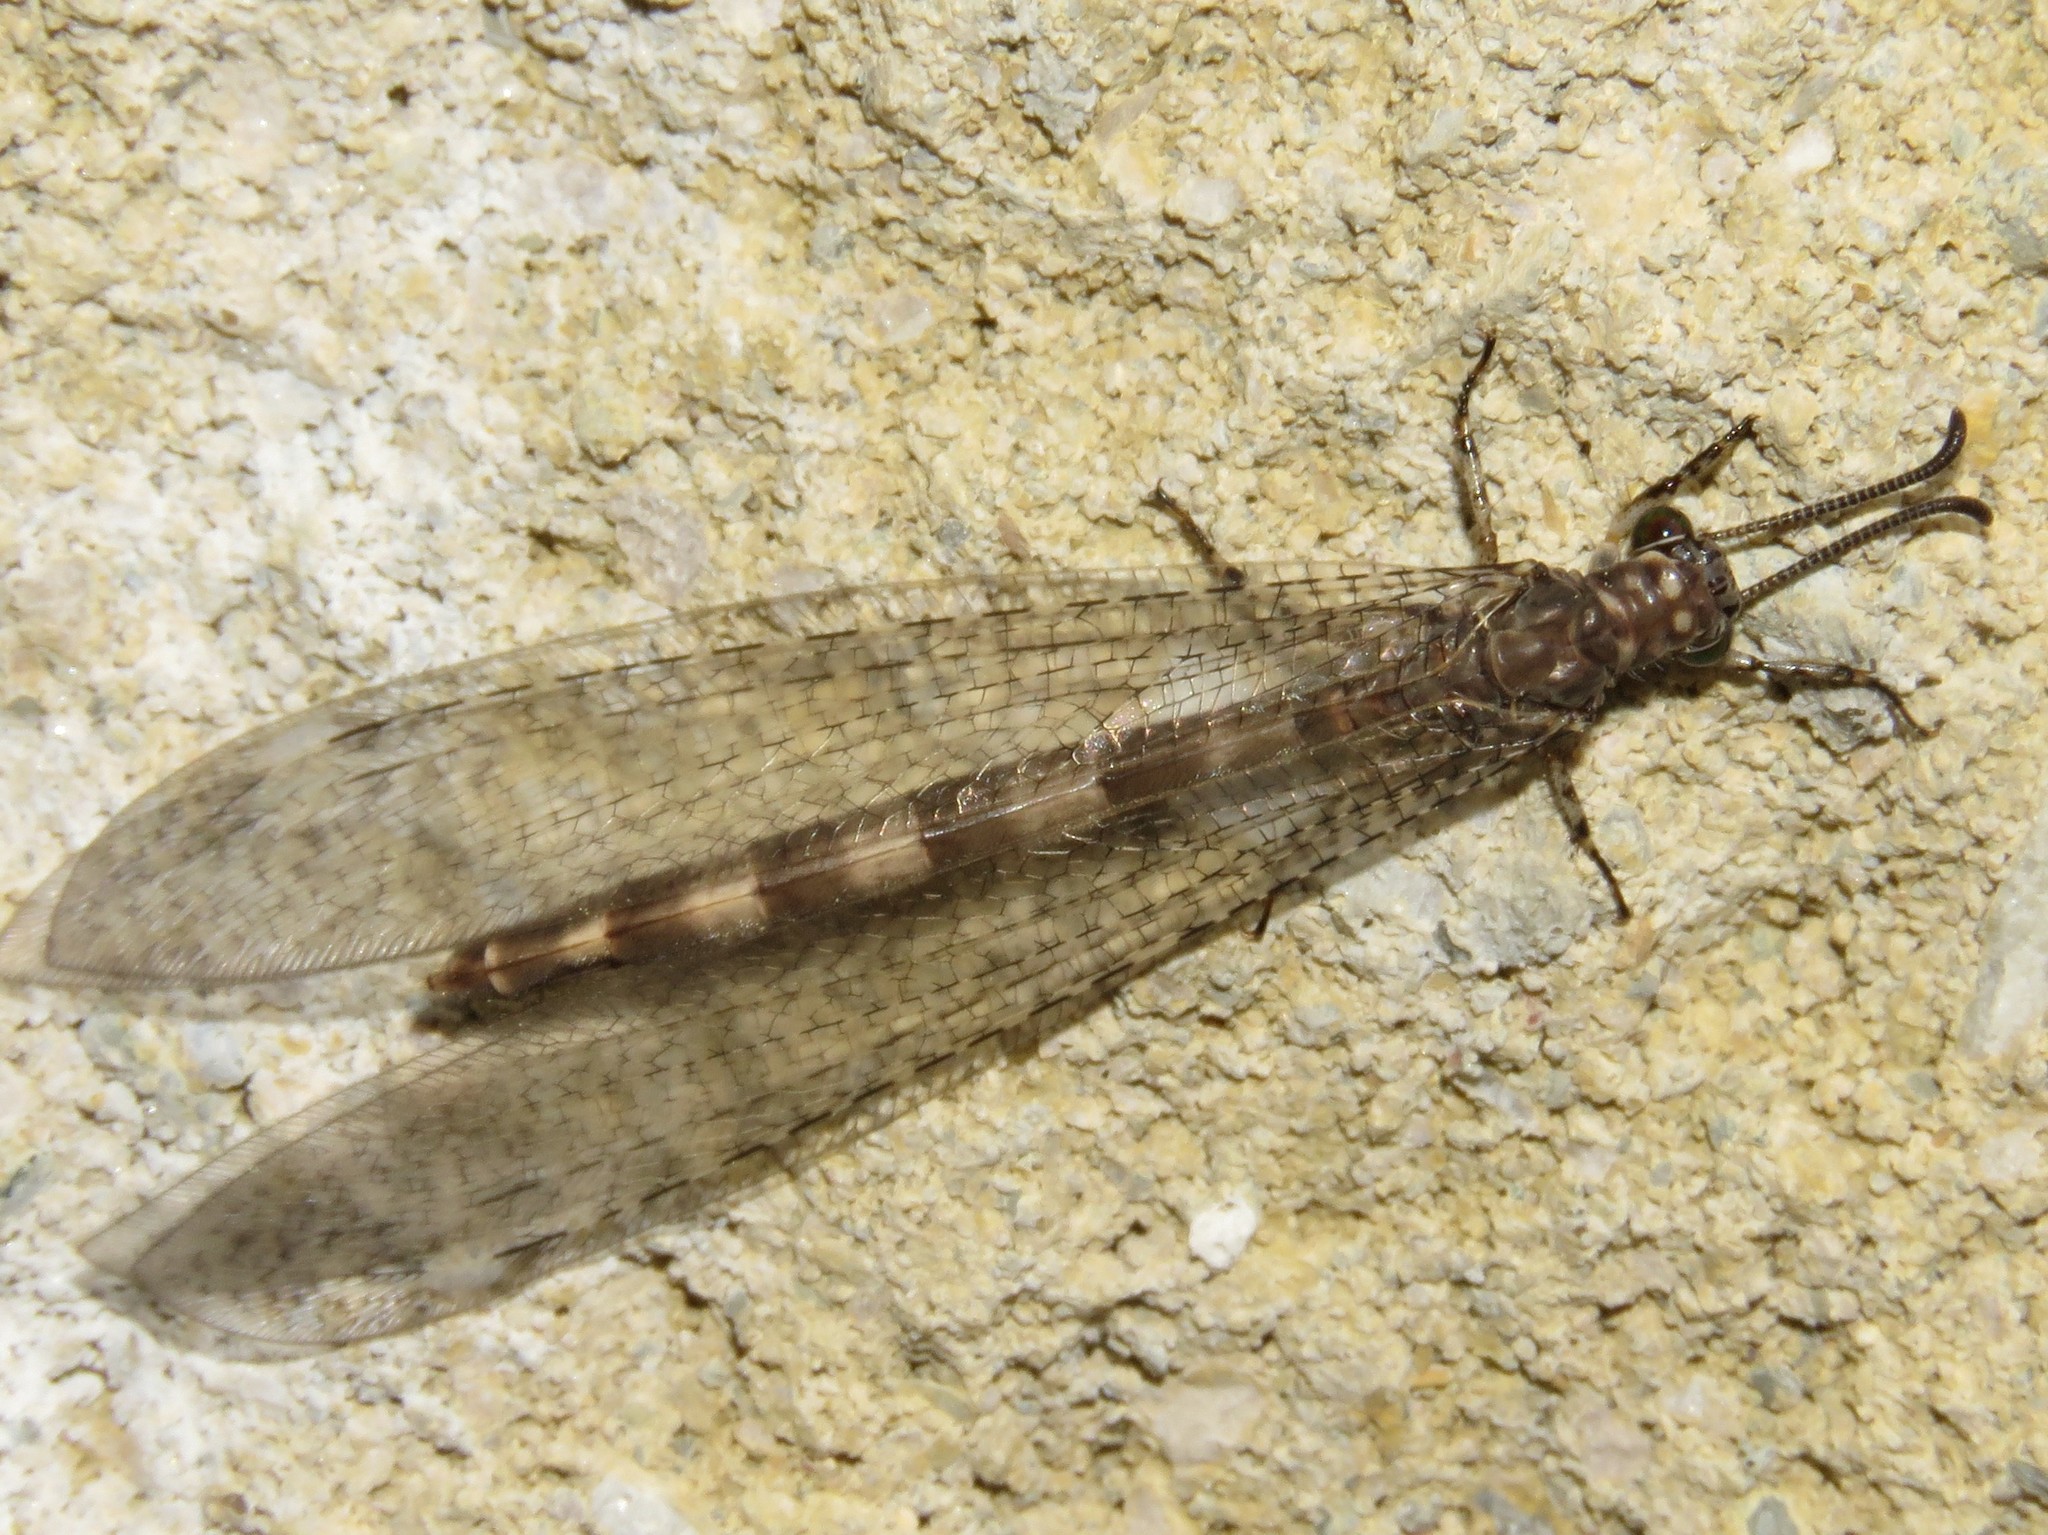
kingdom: Animalia
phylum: Arthropoda
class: Insecta
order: Neuroptera
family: Myrmeleontidae
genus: Myrmeleon
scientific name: Myrmeleon immaculatus
